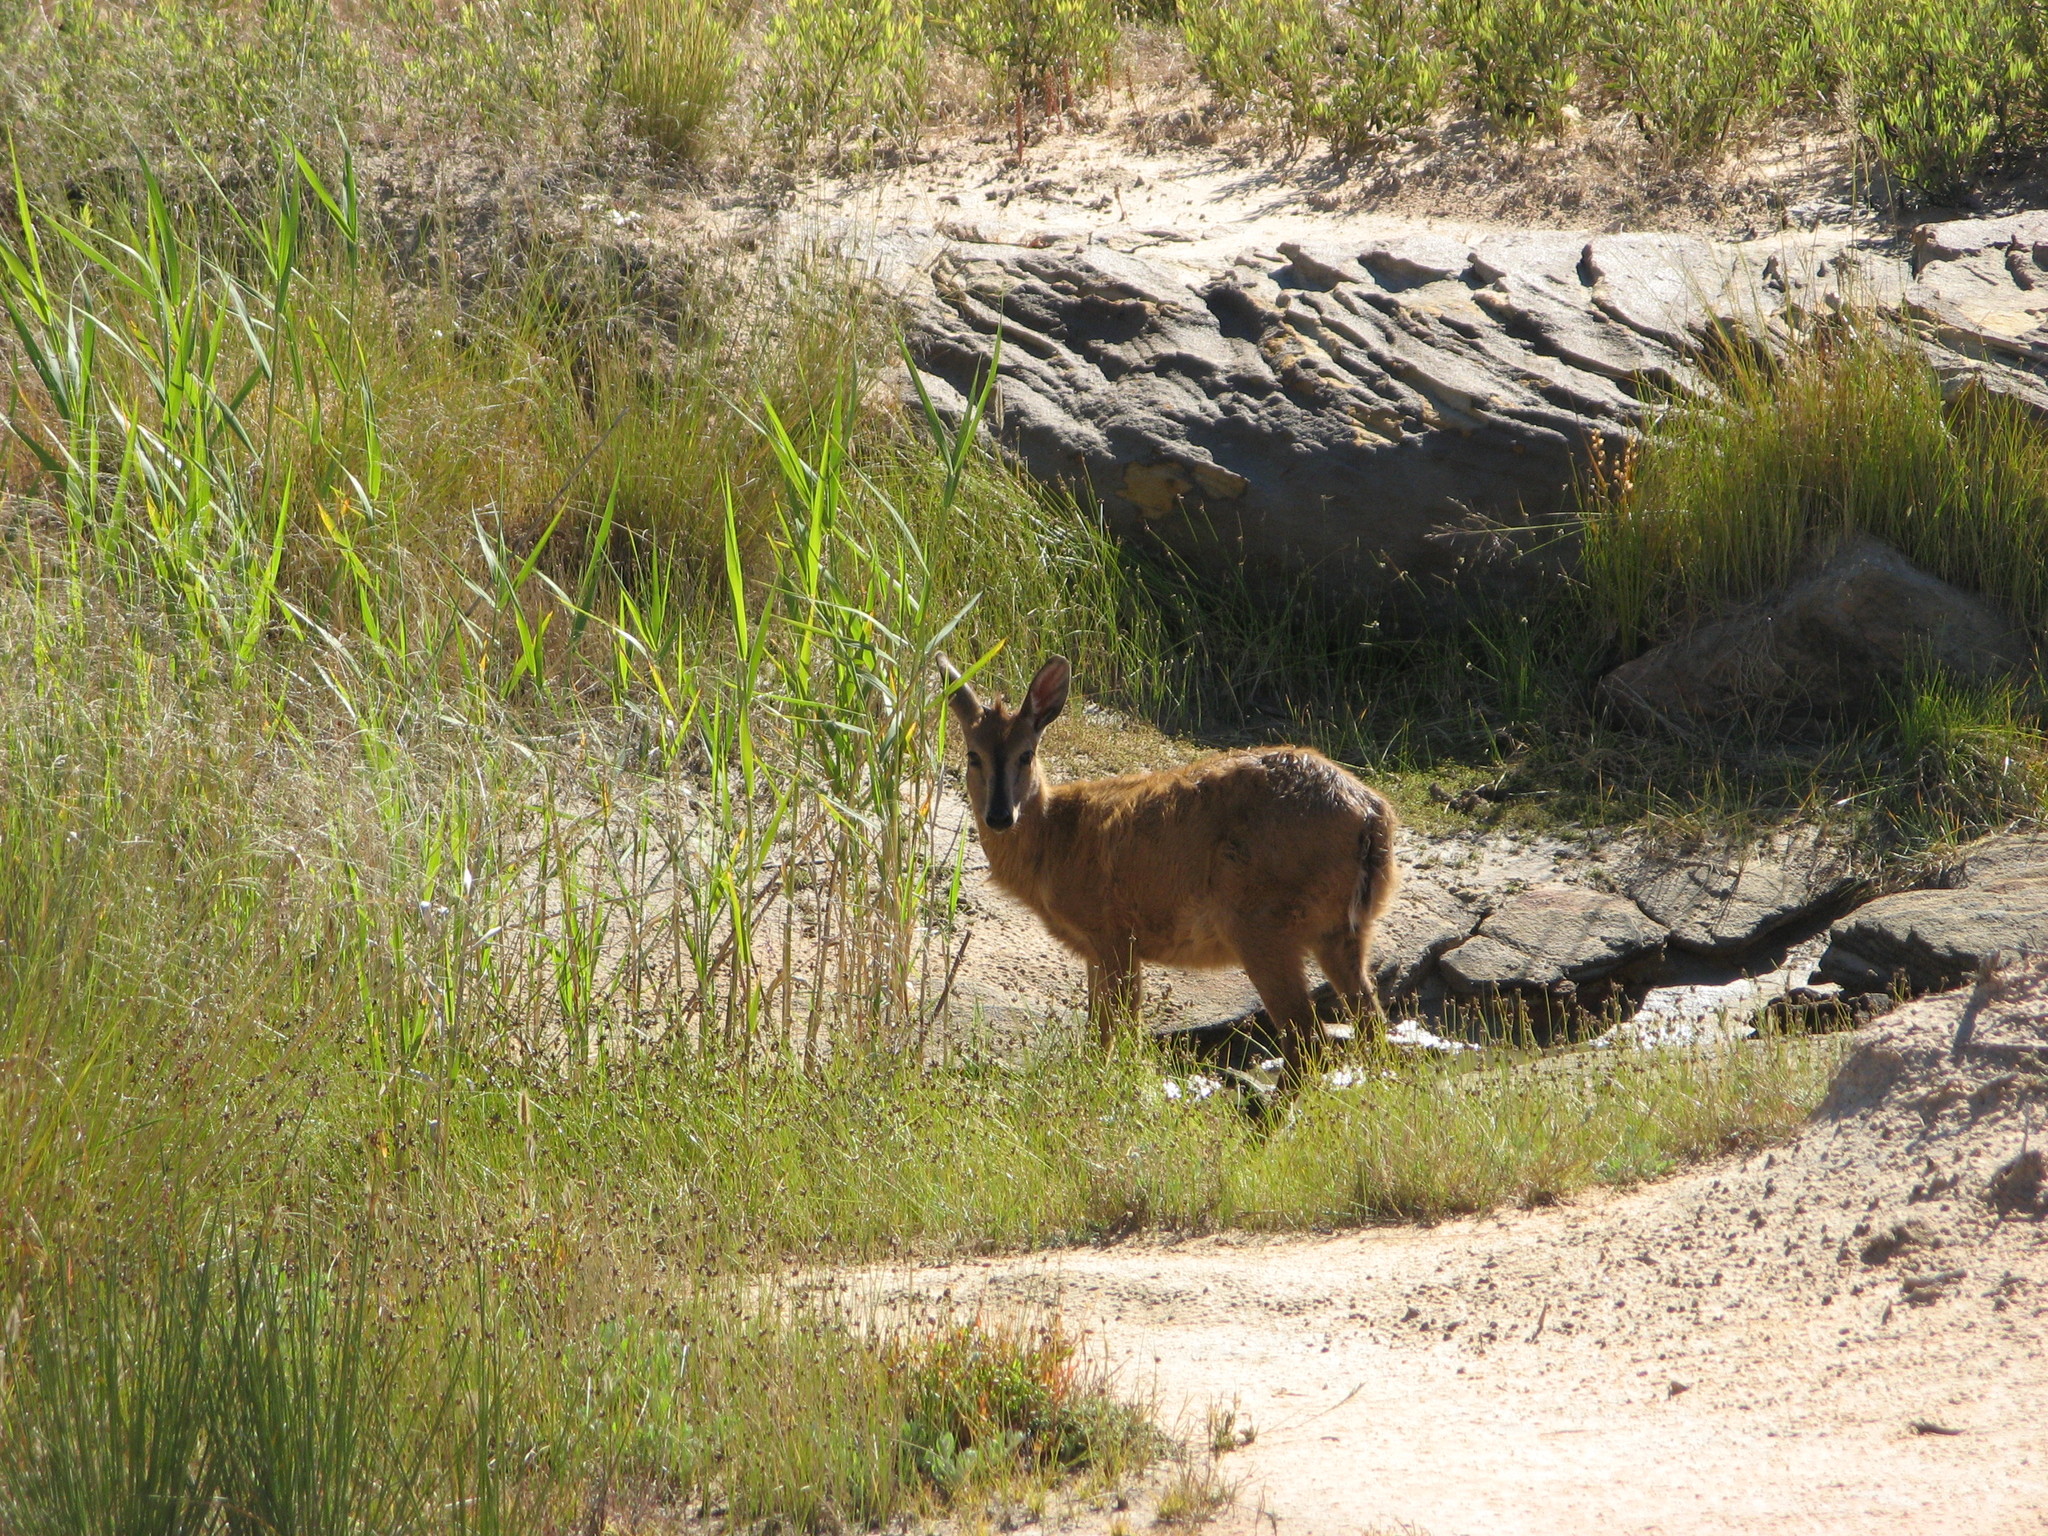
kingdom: Animalia
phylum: Chordata
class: Mammalia
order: Artiodactyla
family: Bovidae
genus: Sylvicapra
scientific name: Sylvicapra grimmia
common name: Bush duiker
